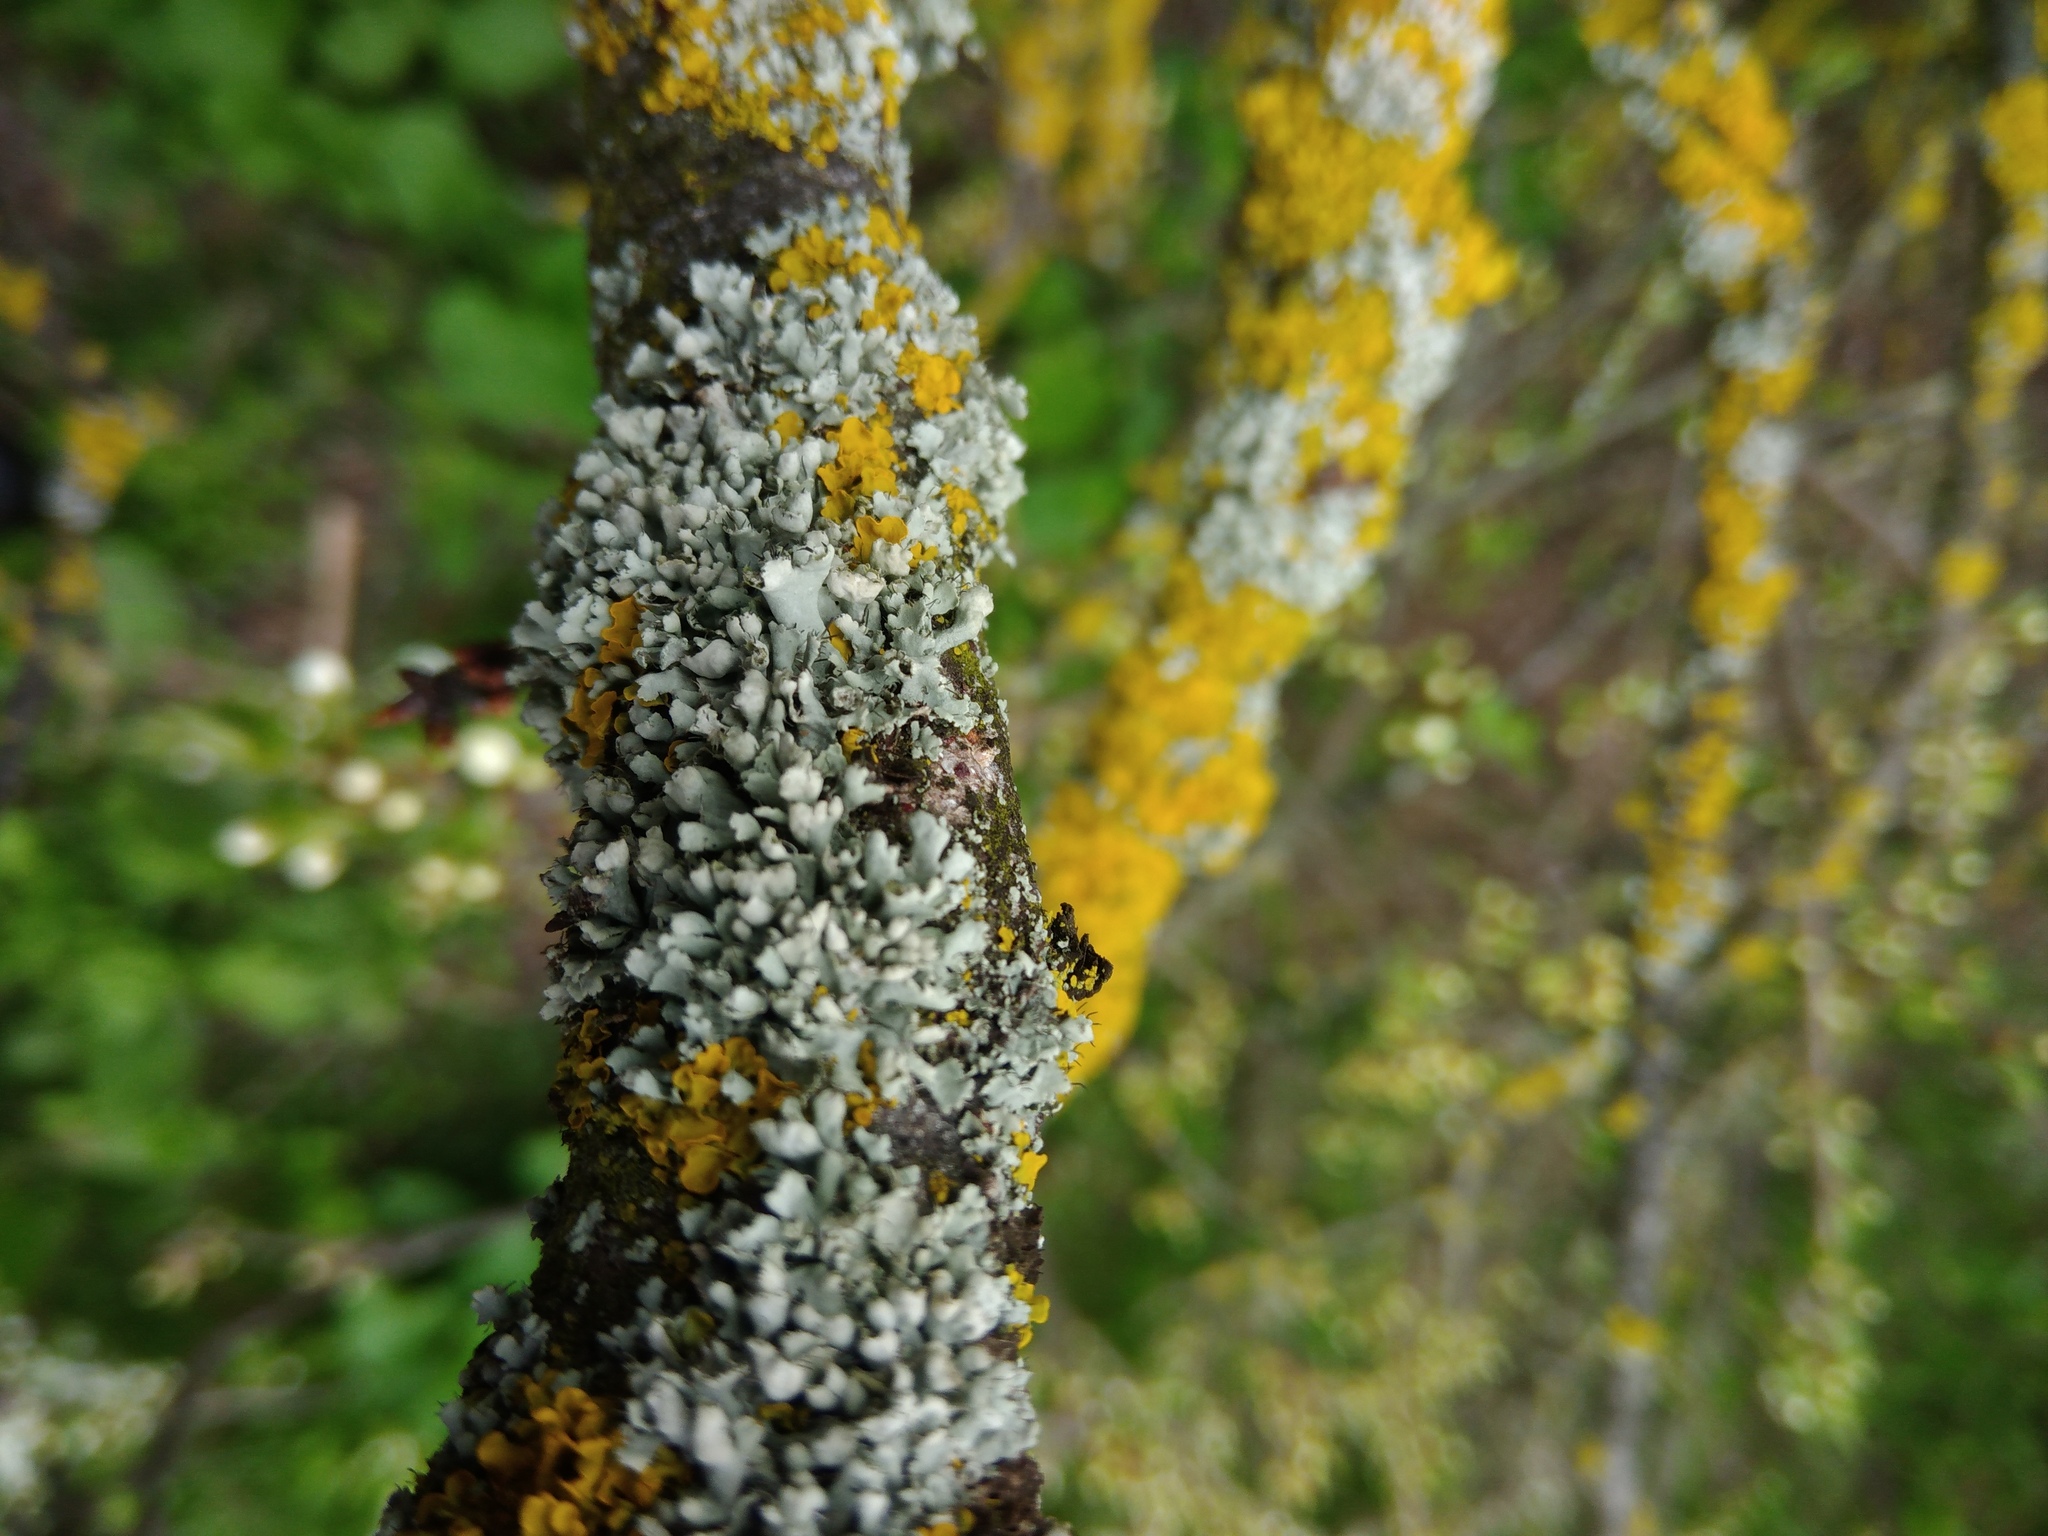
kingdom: Fungi
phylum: Ascomycota
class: Lecanoromycetes
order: Caliciales
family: Physciaceae
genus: Physcia
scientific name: Physcia adscendens
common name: Hooded rosette lichen
